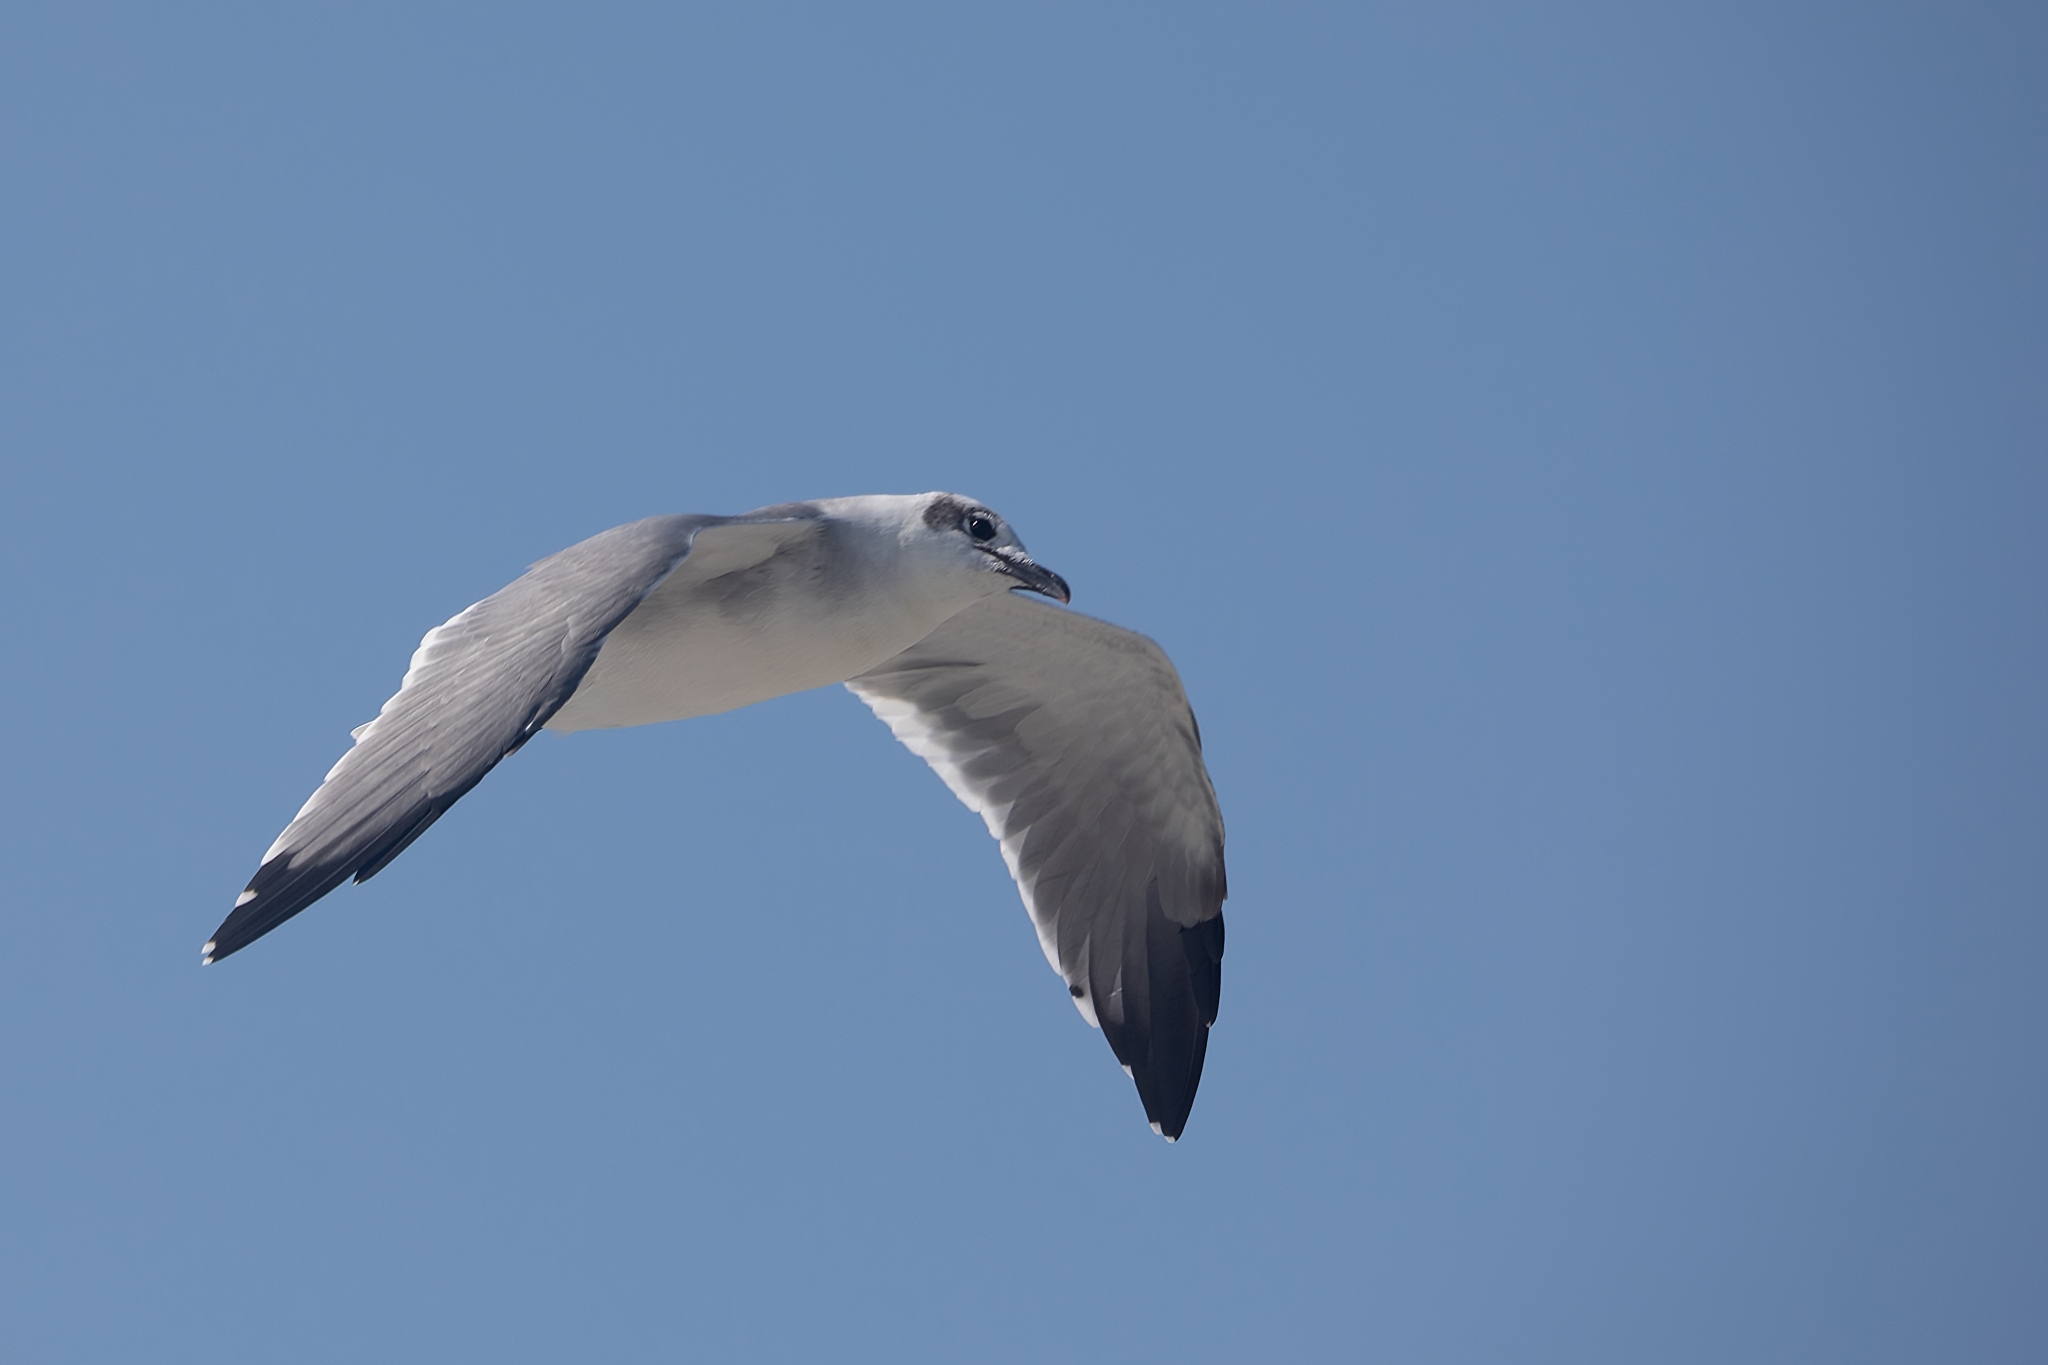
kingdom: Animalia
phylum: Chordata
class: Aves
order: Charadriiformes
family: Laridae
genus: Leucophaeus
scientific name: Leucophaeus atricilla
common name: Laughing gull
